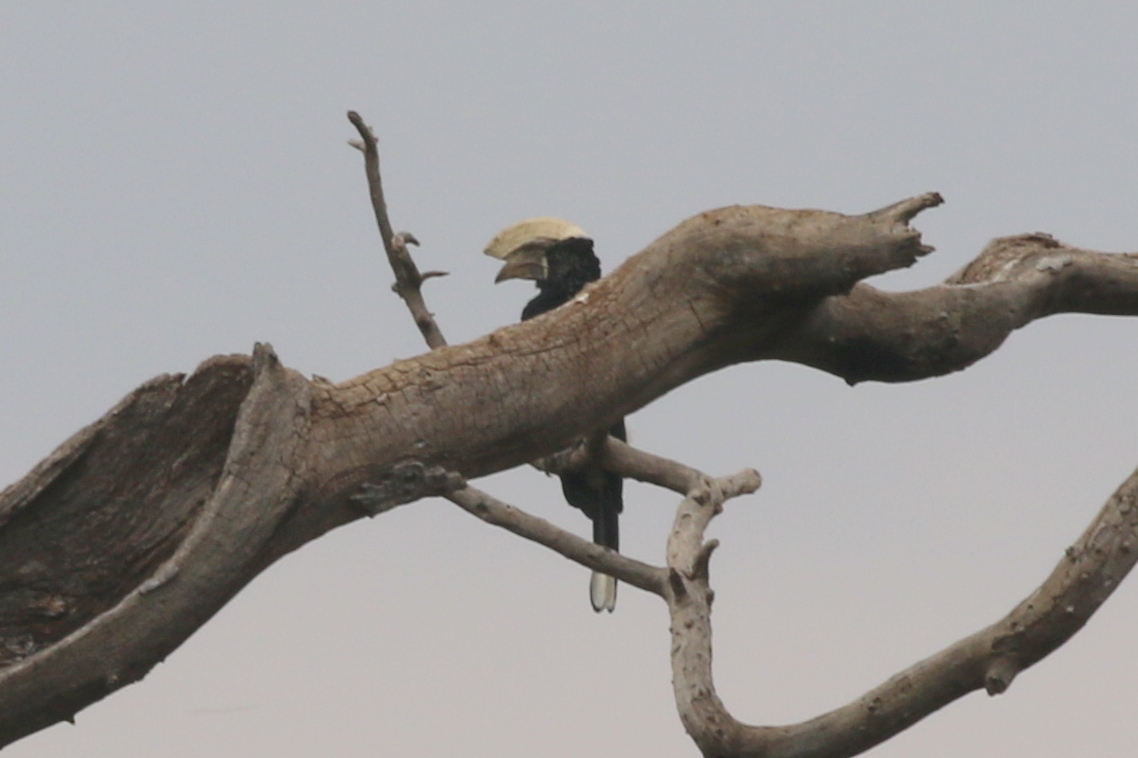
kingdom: Animalia
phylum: Chordata
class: Aves
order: Bucerotiformes
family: Bucerotidae
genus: Bycanistes
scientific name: Bycanistes brevis
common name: Silvery-cheeked hornbill
